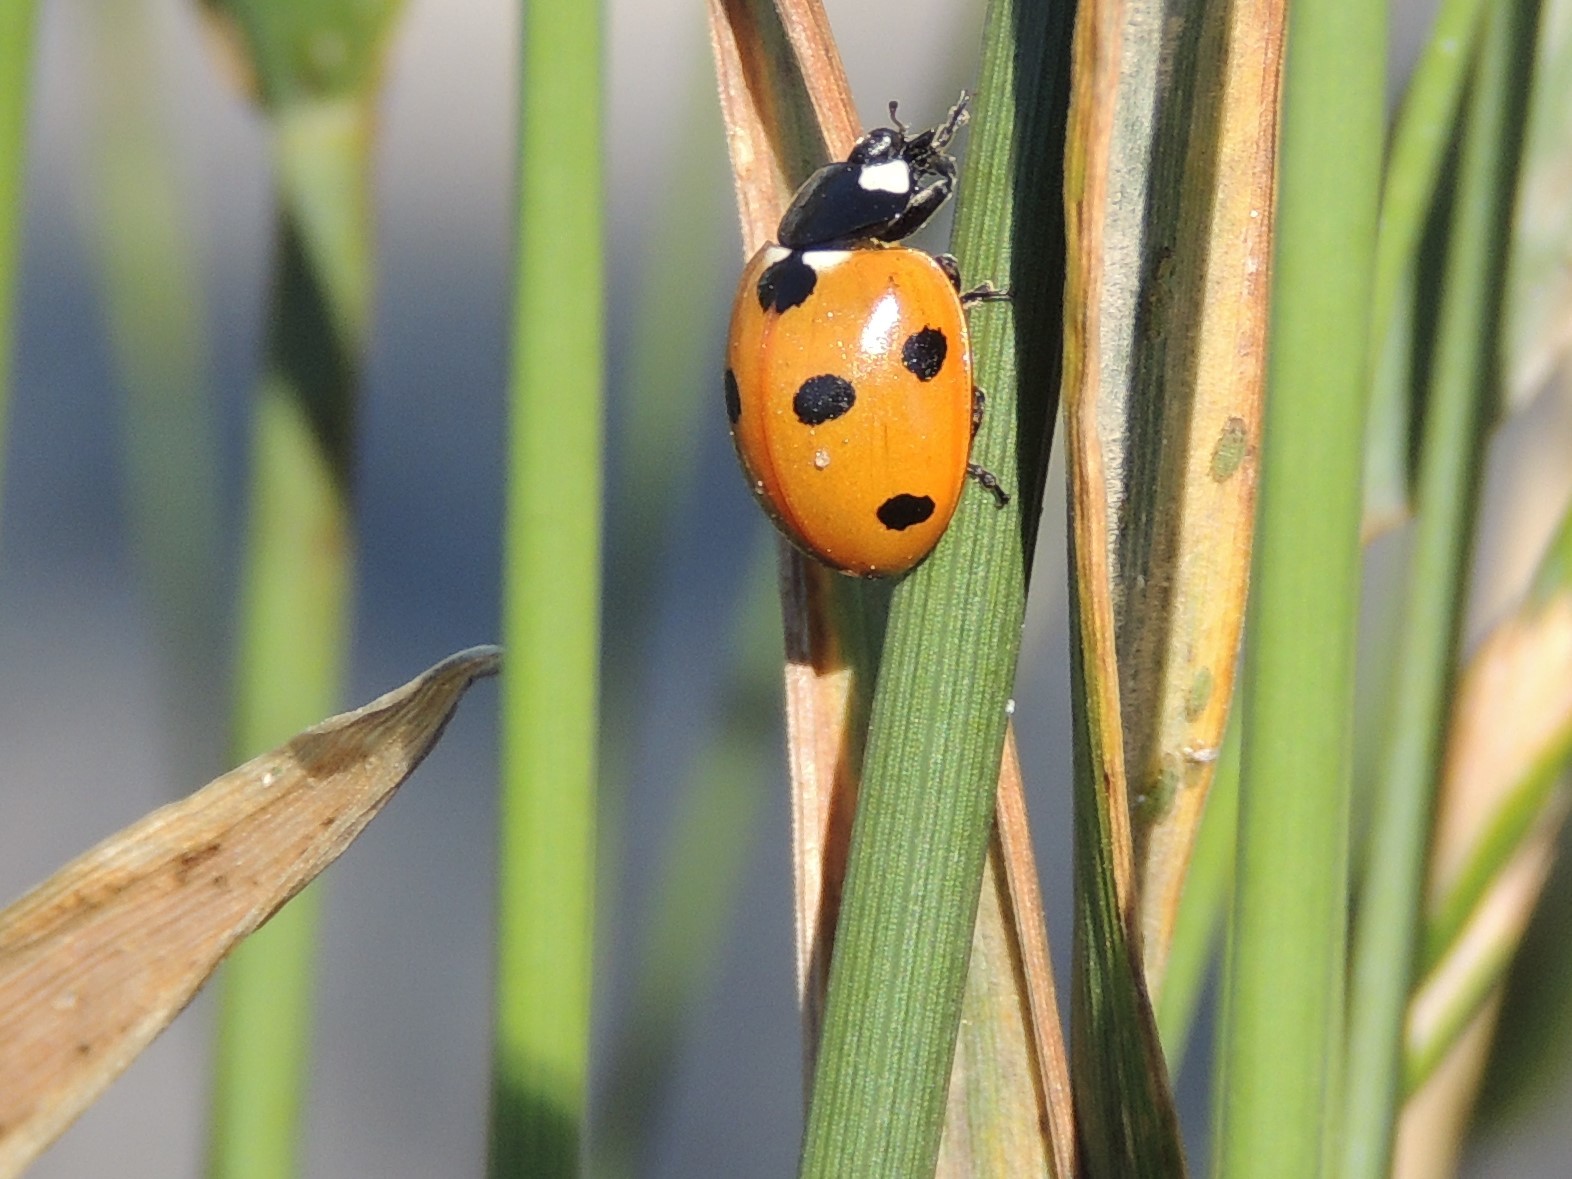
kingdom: Animalia
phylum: Arthropoda
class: Insecta
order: Coleoptera
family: Coccinellidae
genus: Coccinella
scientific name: Coccinella septempunctata
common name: Sevenspotted lady beetle
